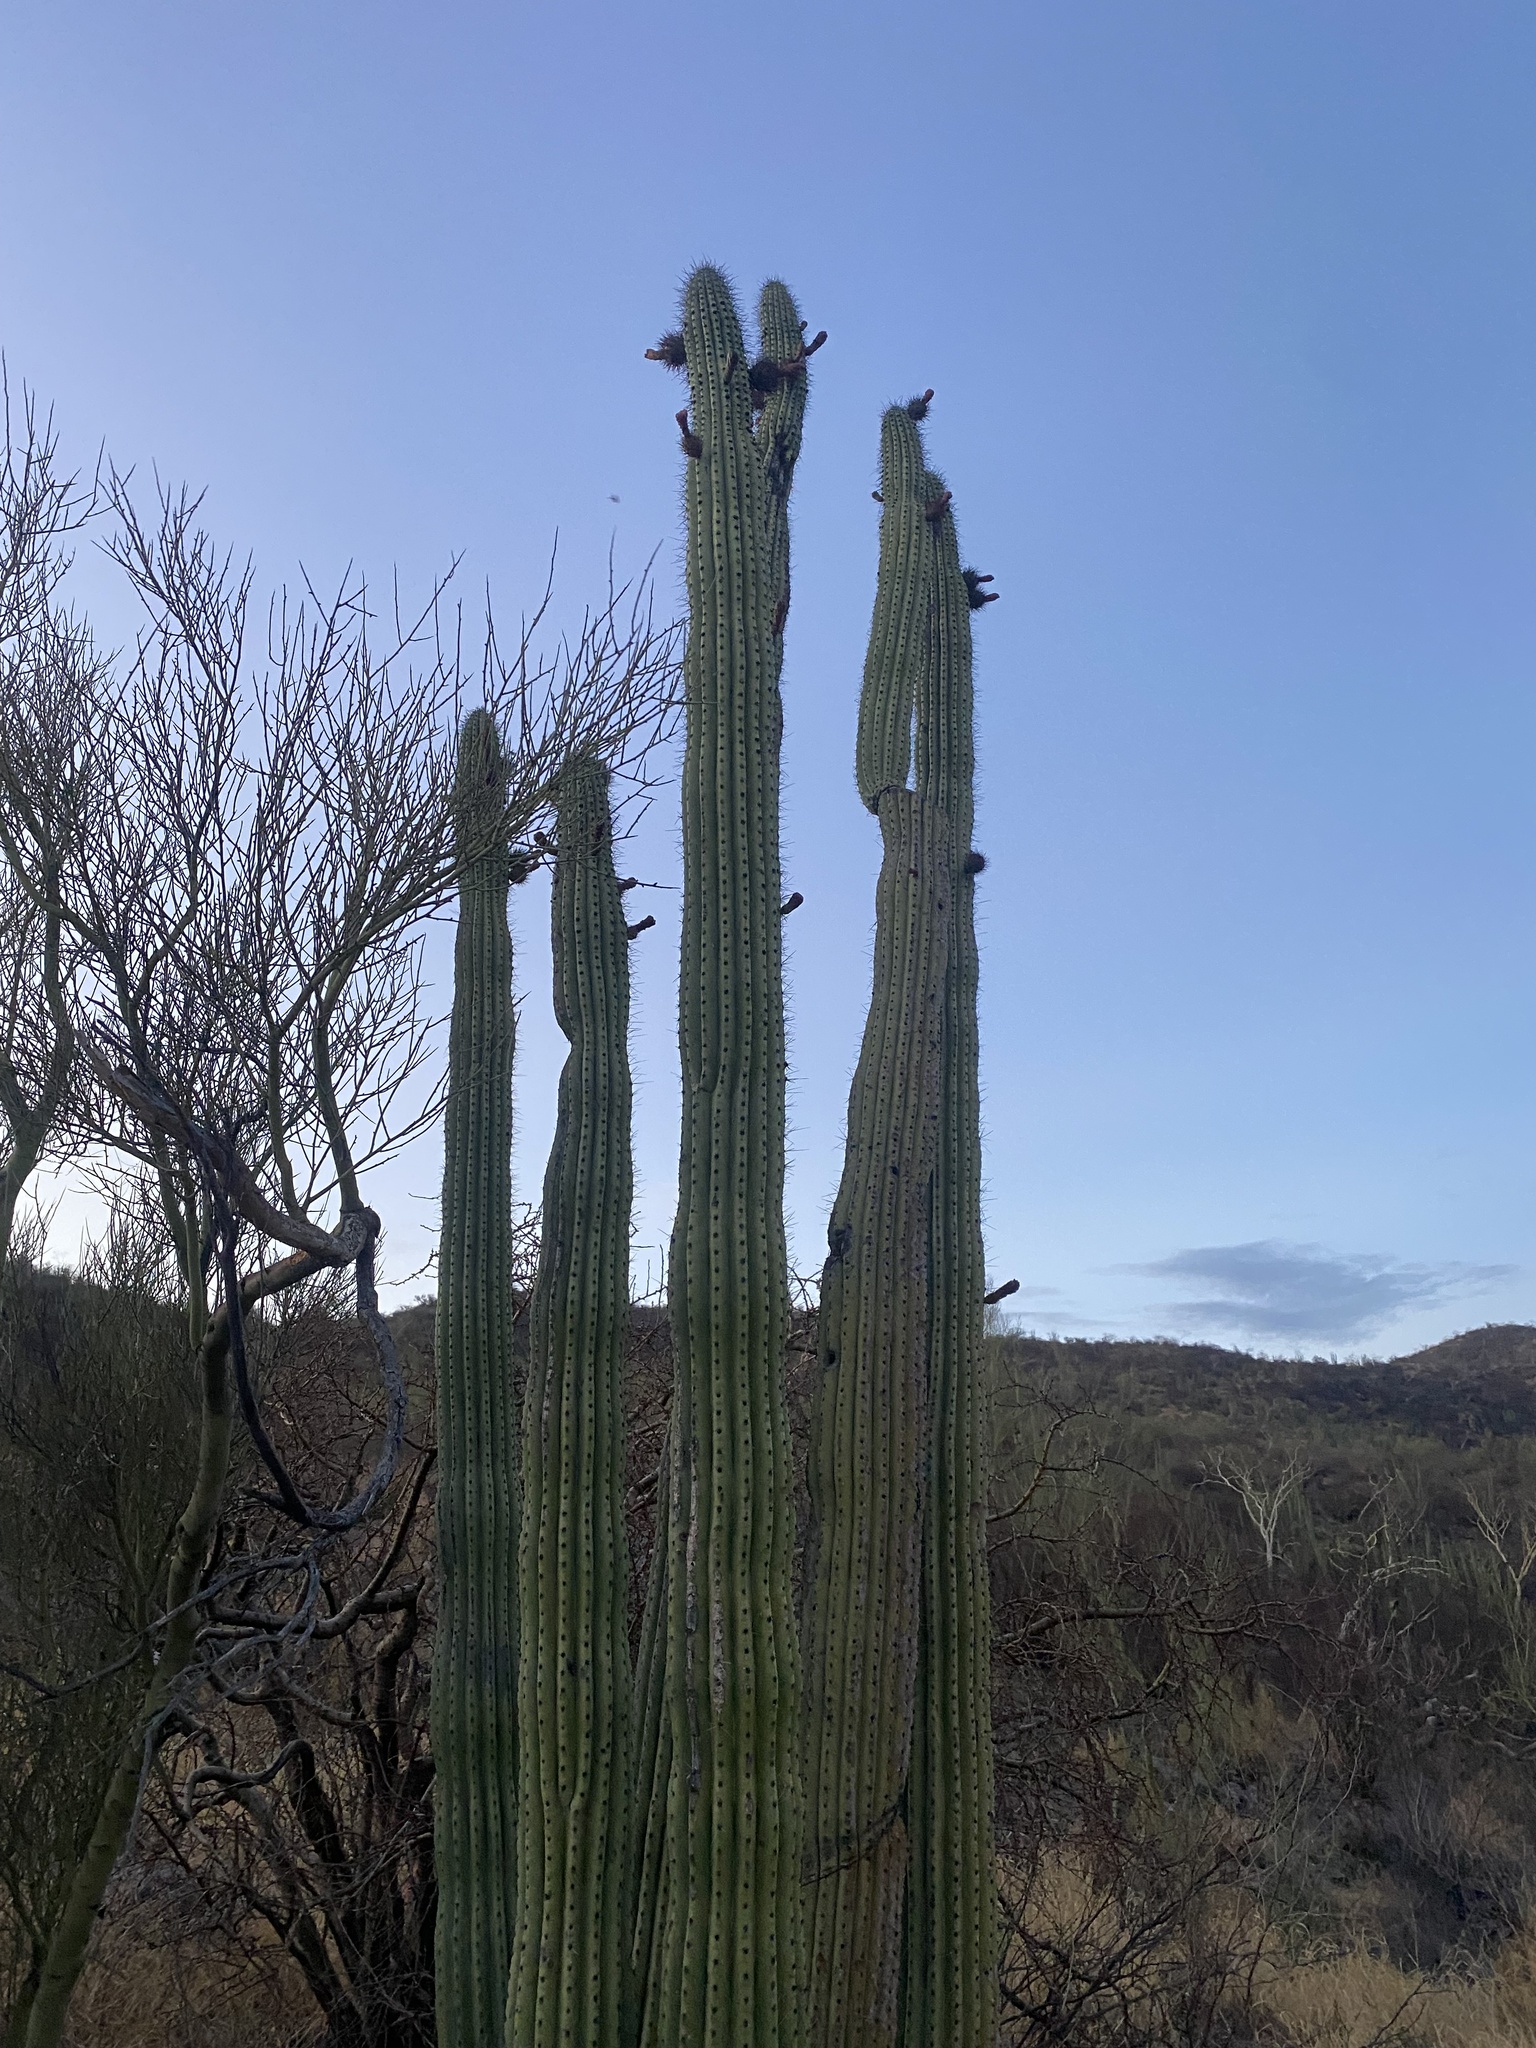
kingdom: Plantae
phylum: Tracheophyta
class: Magnoliopsida
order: Caryophyllales
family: Cactaceae
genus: Stenocereus
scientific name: Stenocereus thurberi
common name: Organ pipe cactus
